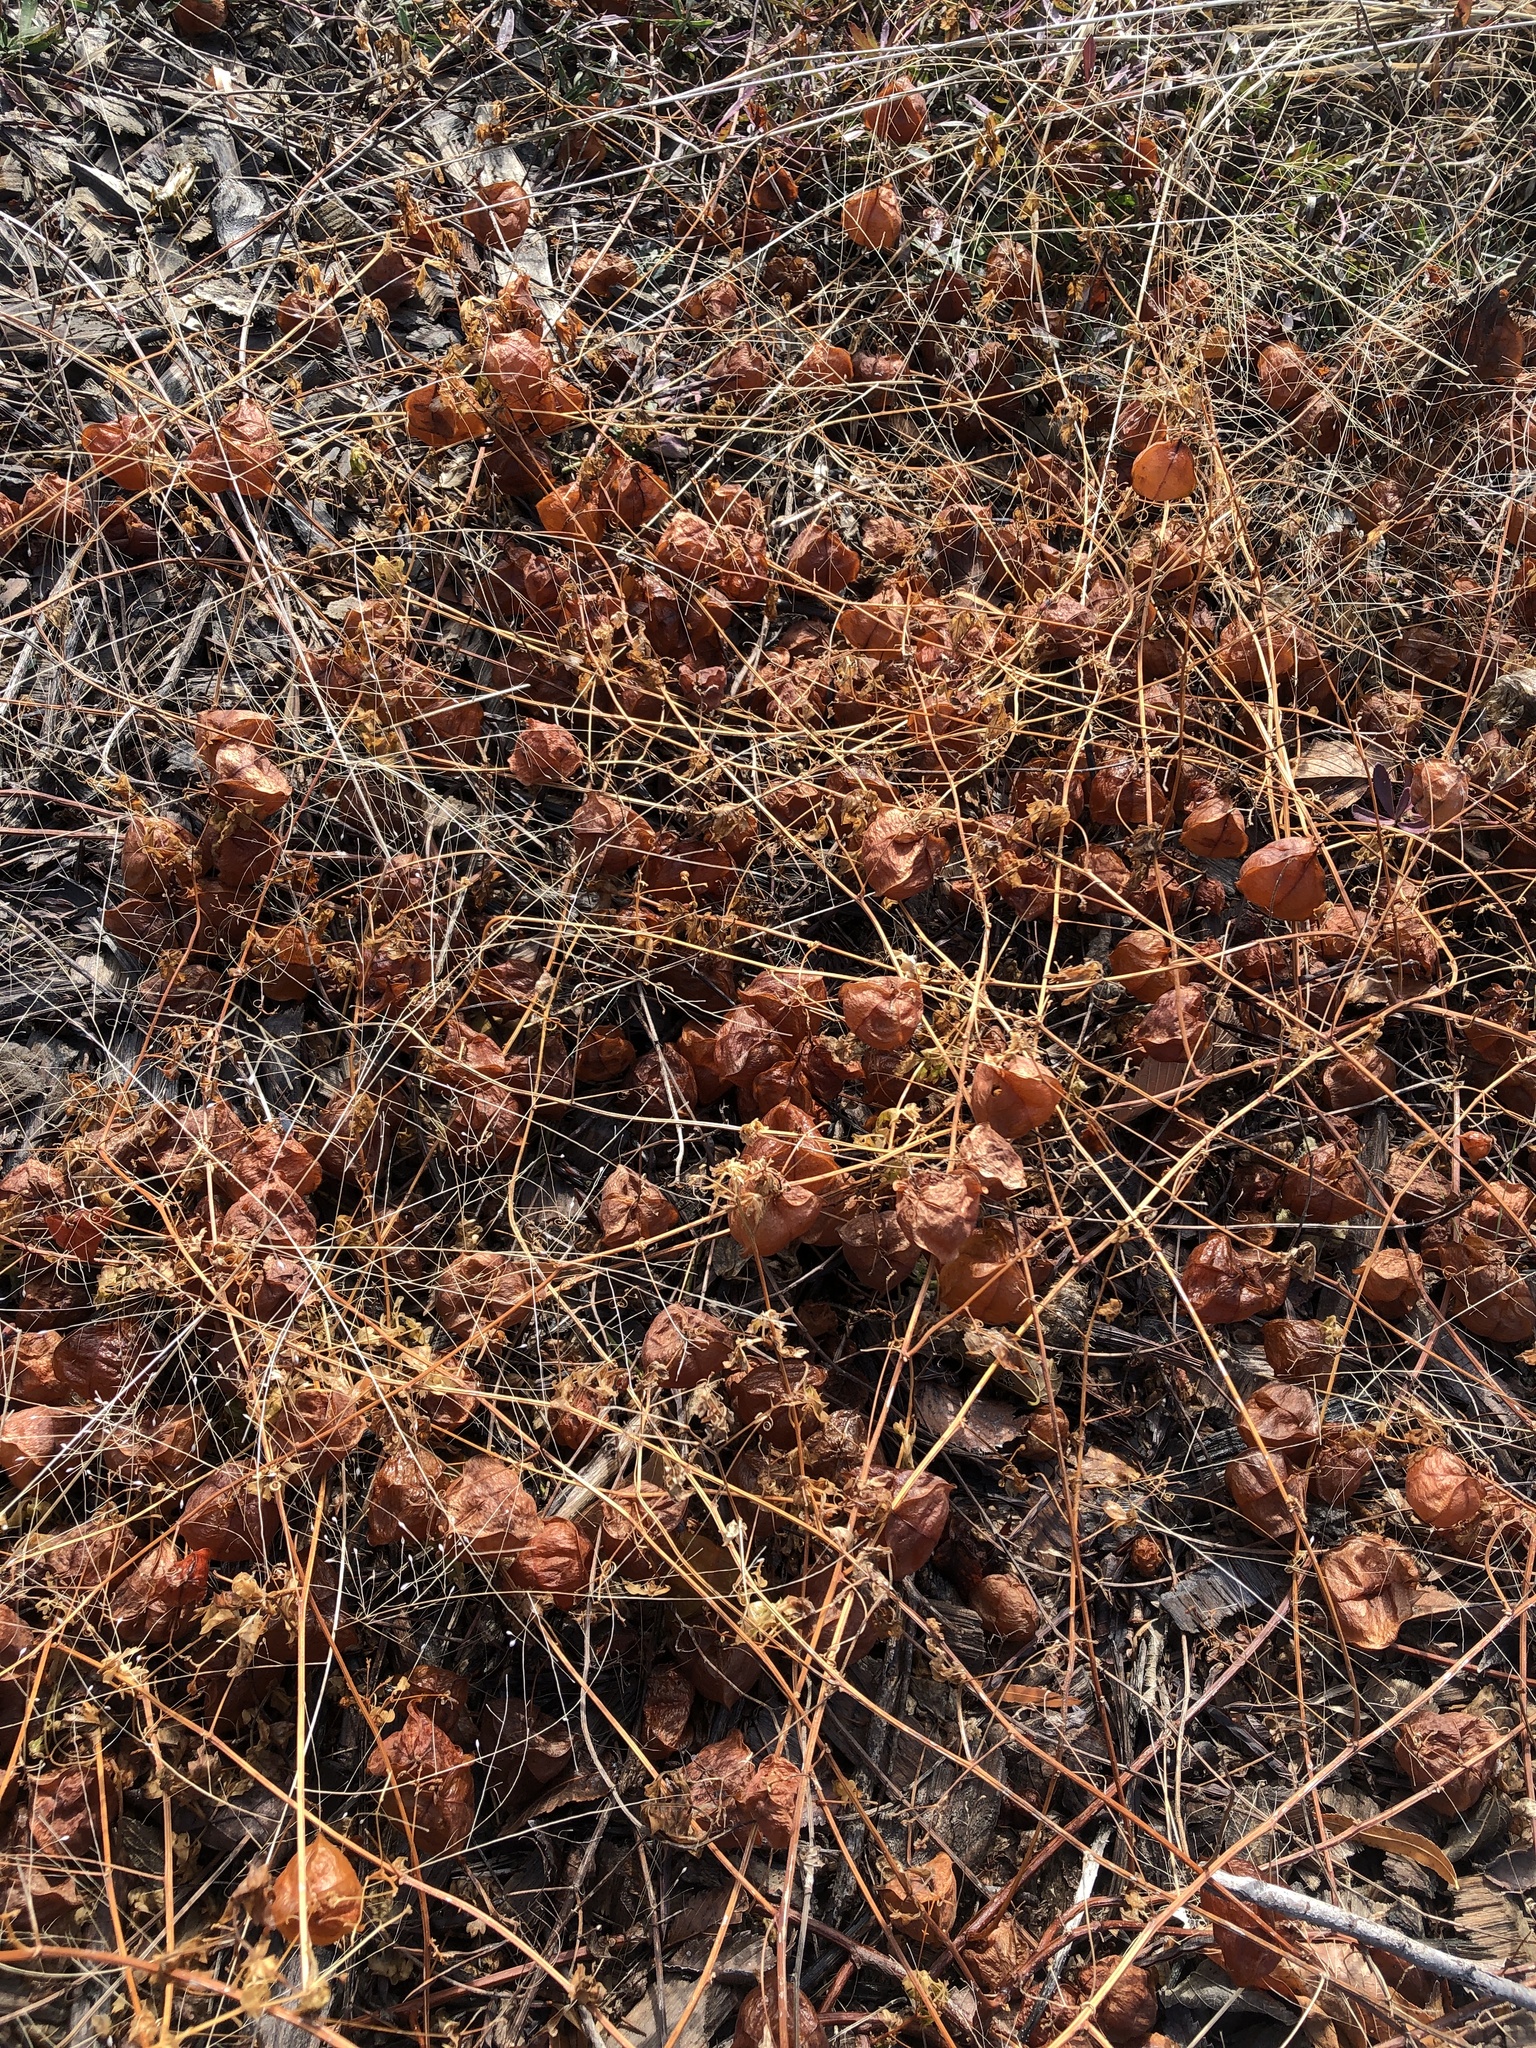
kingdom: Plantae
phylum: Tracheophyta
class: Magnoliopsida
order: Sapindales
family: Sapindaceae
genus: Cardiospermum
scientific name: Cardiospermum halicacabum
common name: Balloon vine
